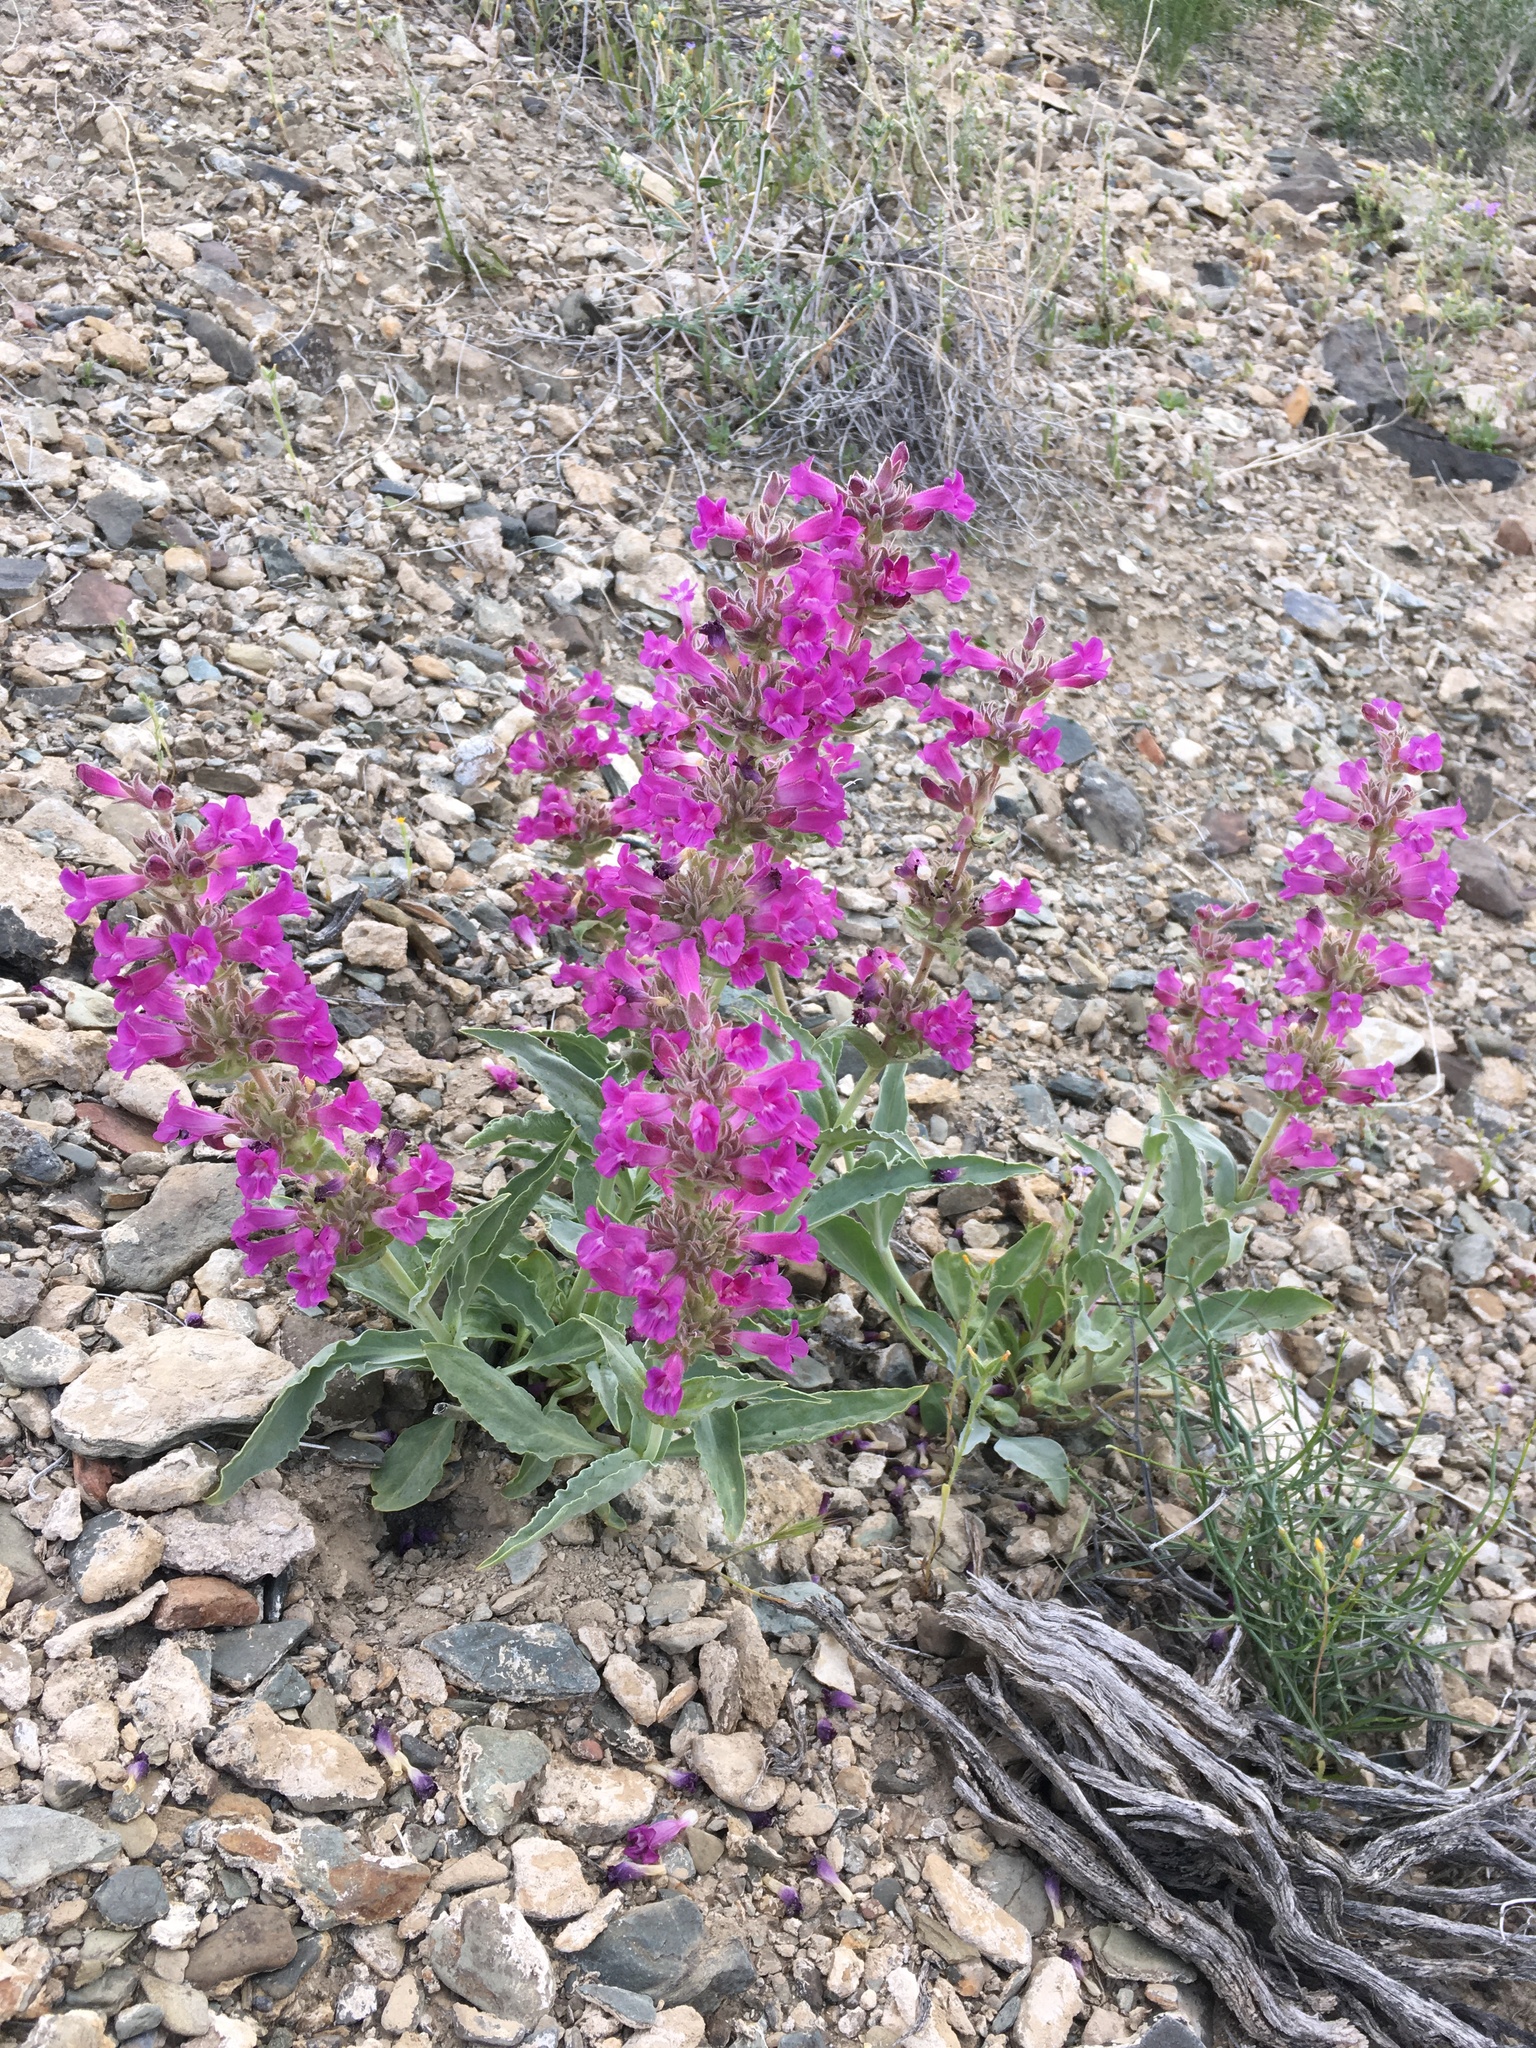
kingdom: Plantae
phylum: Tracheophyta
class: Magnoliopsida
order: Lamiales
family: Plantaginaceae
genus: Penstemon
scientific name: Penstemon monoensis
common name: Mono penstemon
